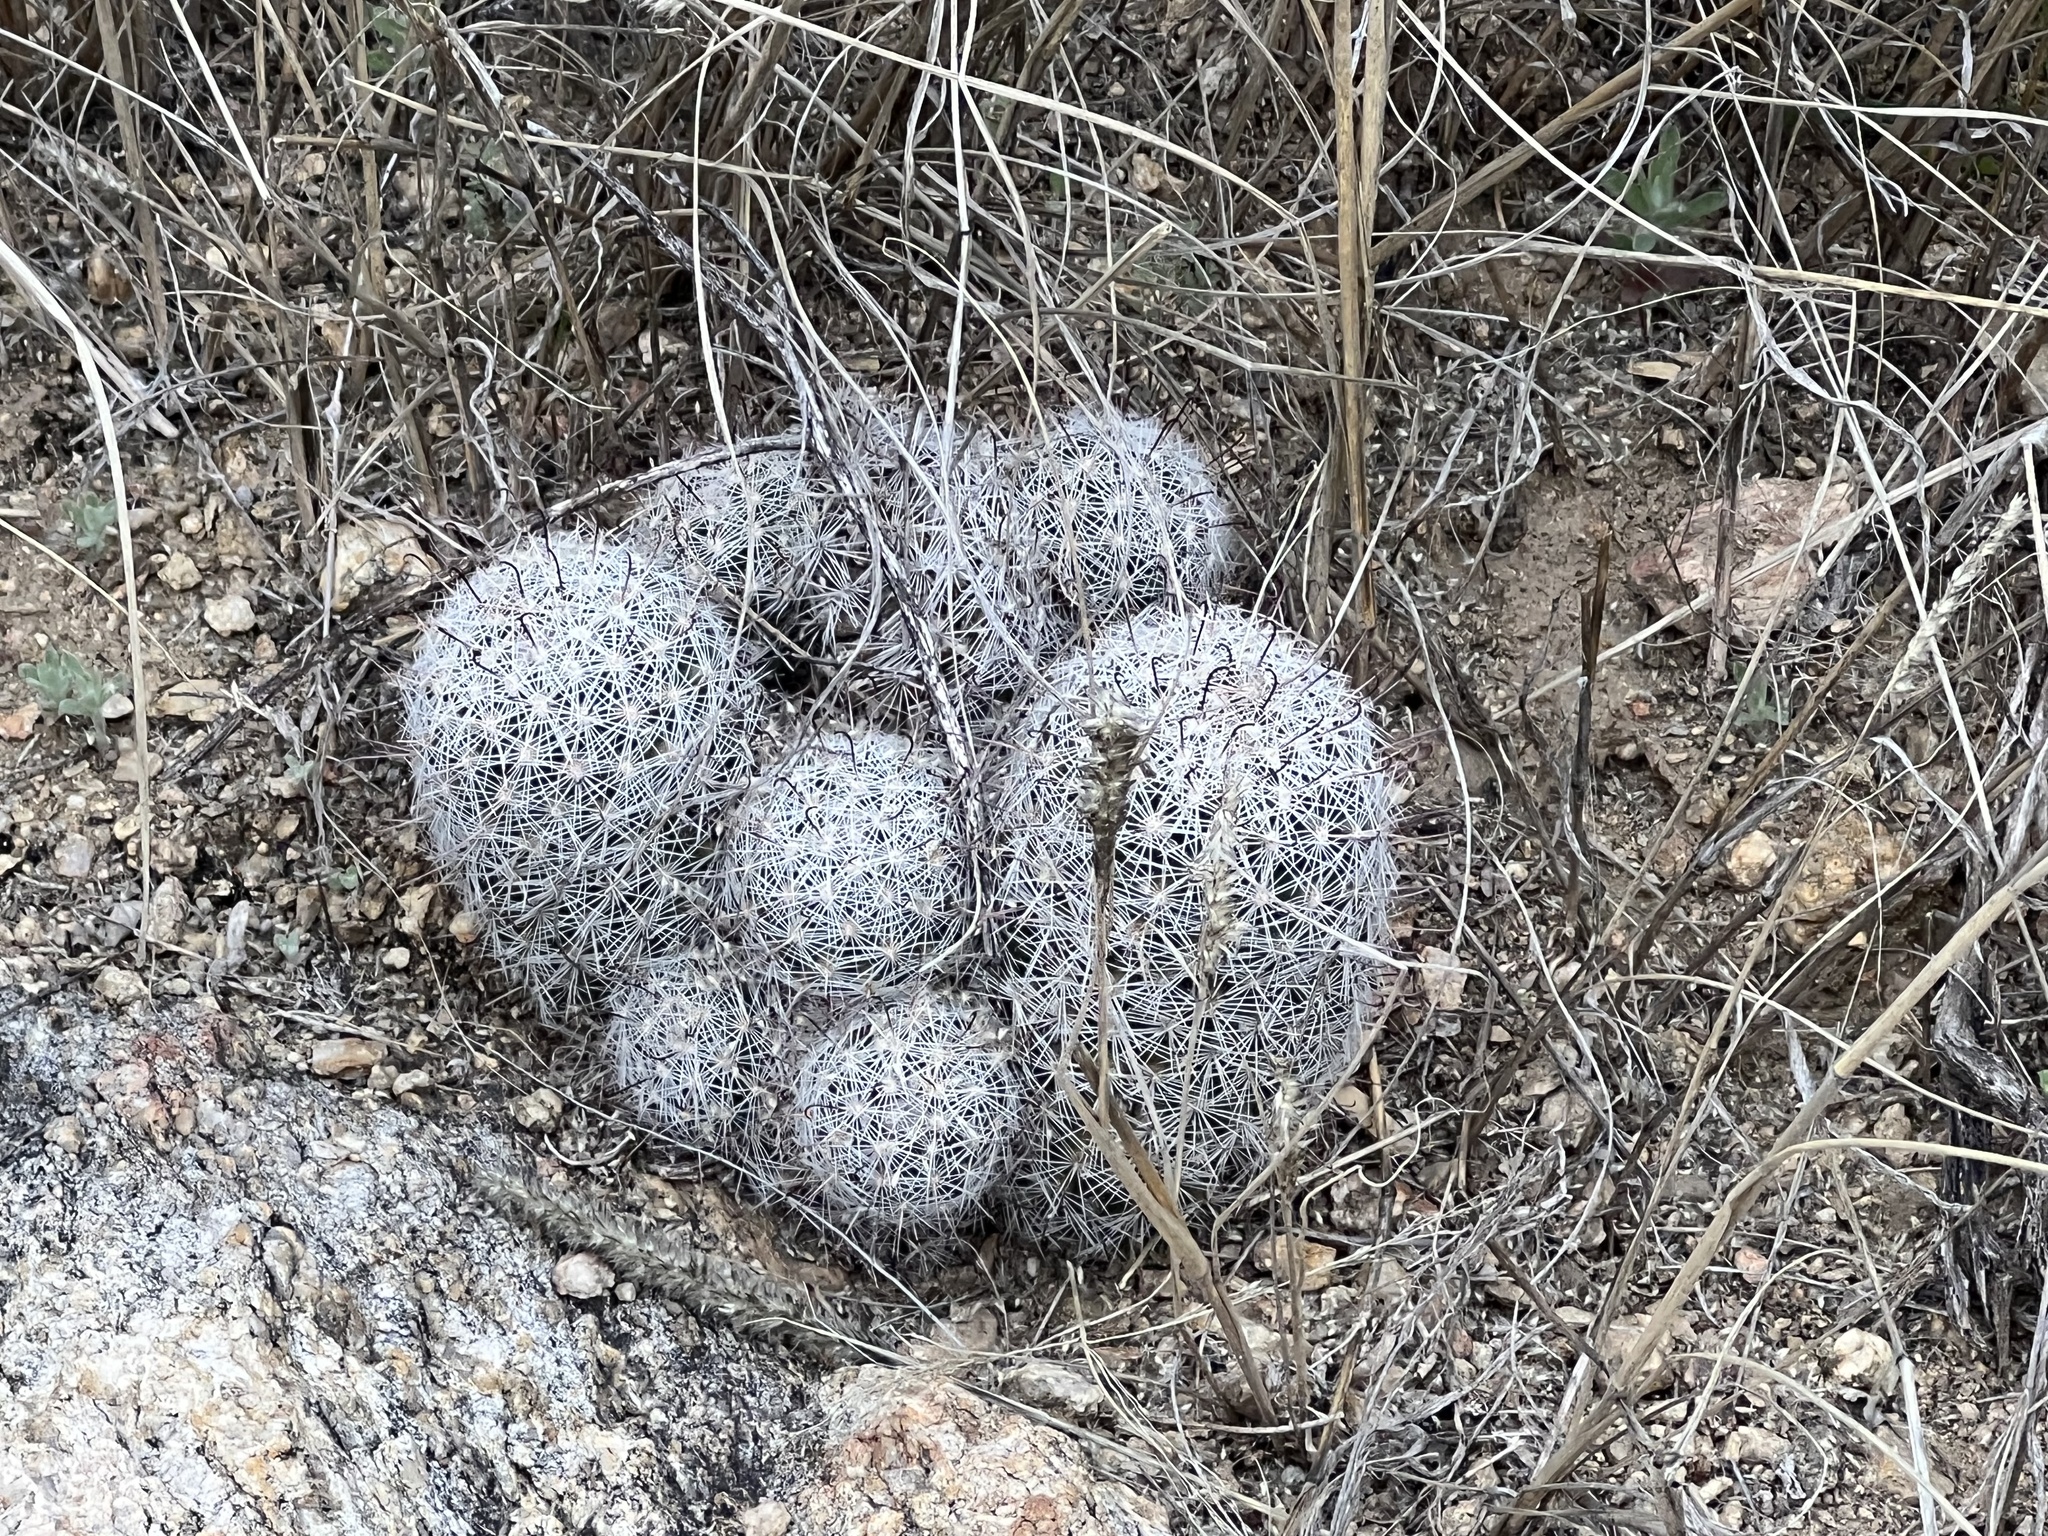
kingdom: Plantae
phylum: Tracheophyta
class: Magnoliopsida
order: Caryophyllales
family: Cactaceae
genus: Cochemiea
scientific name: Cochemiea grahamii
